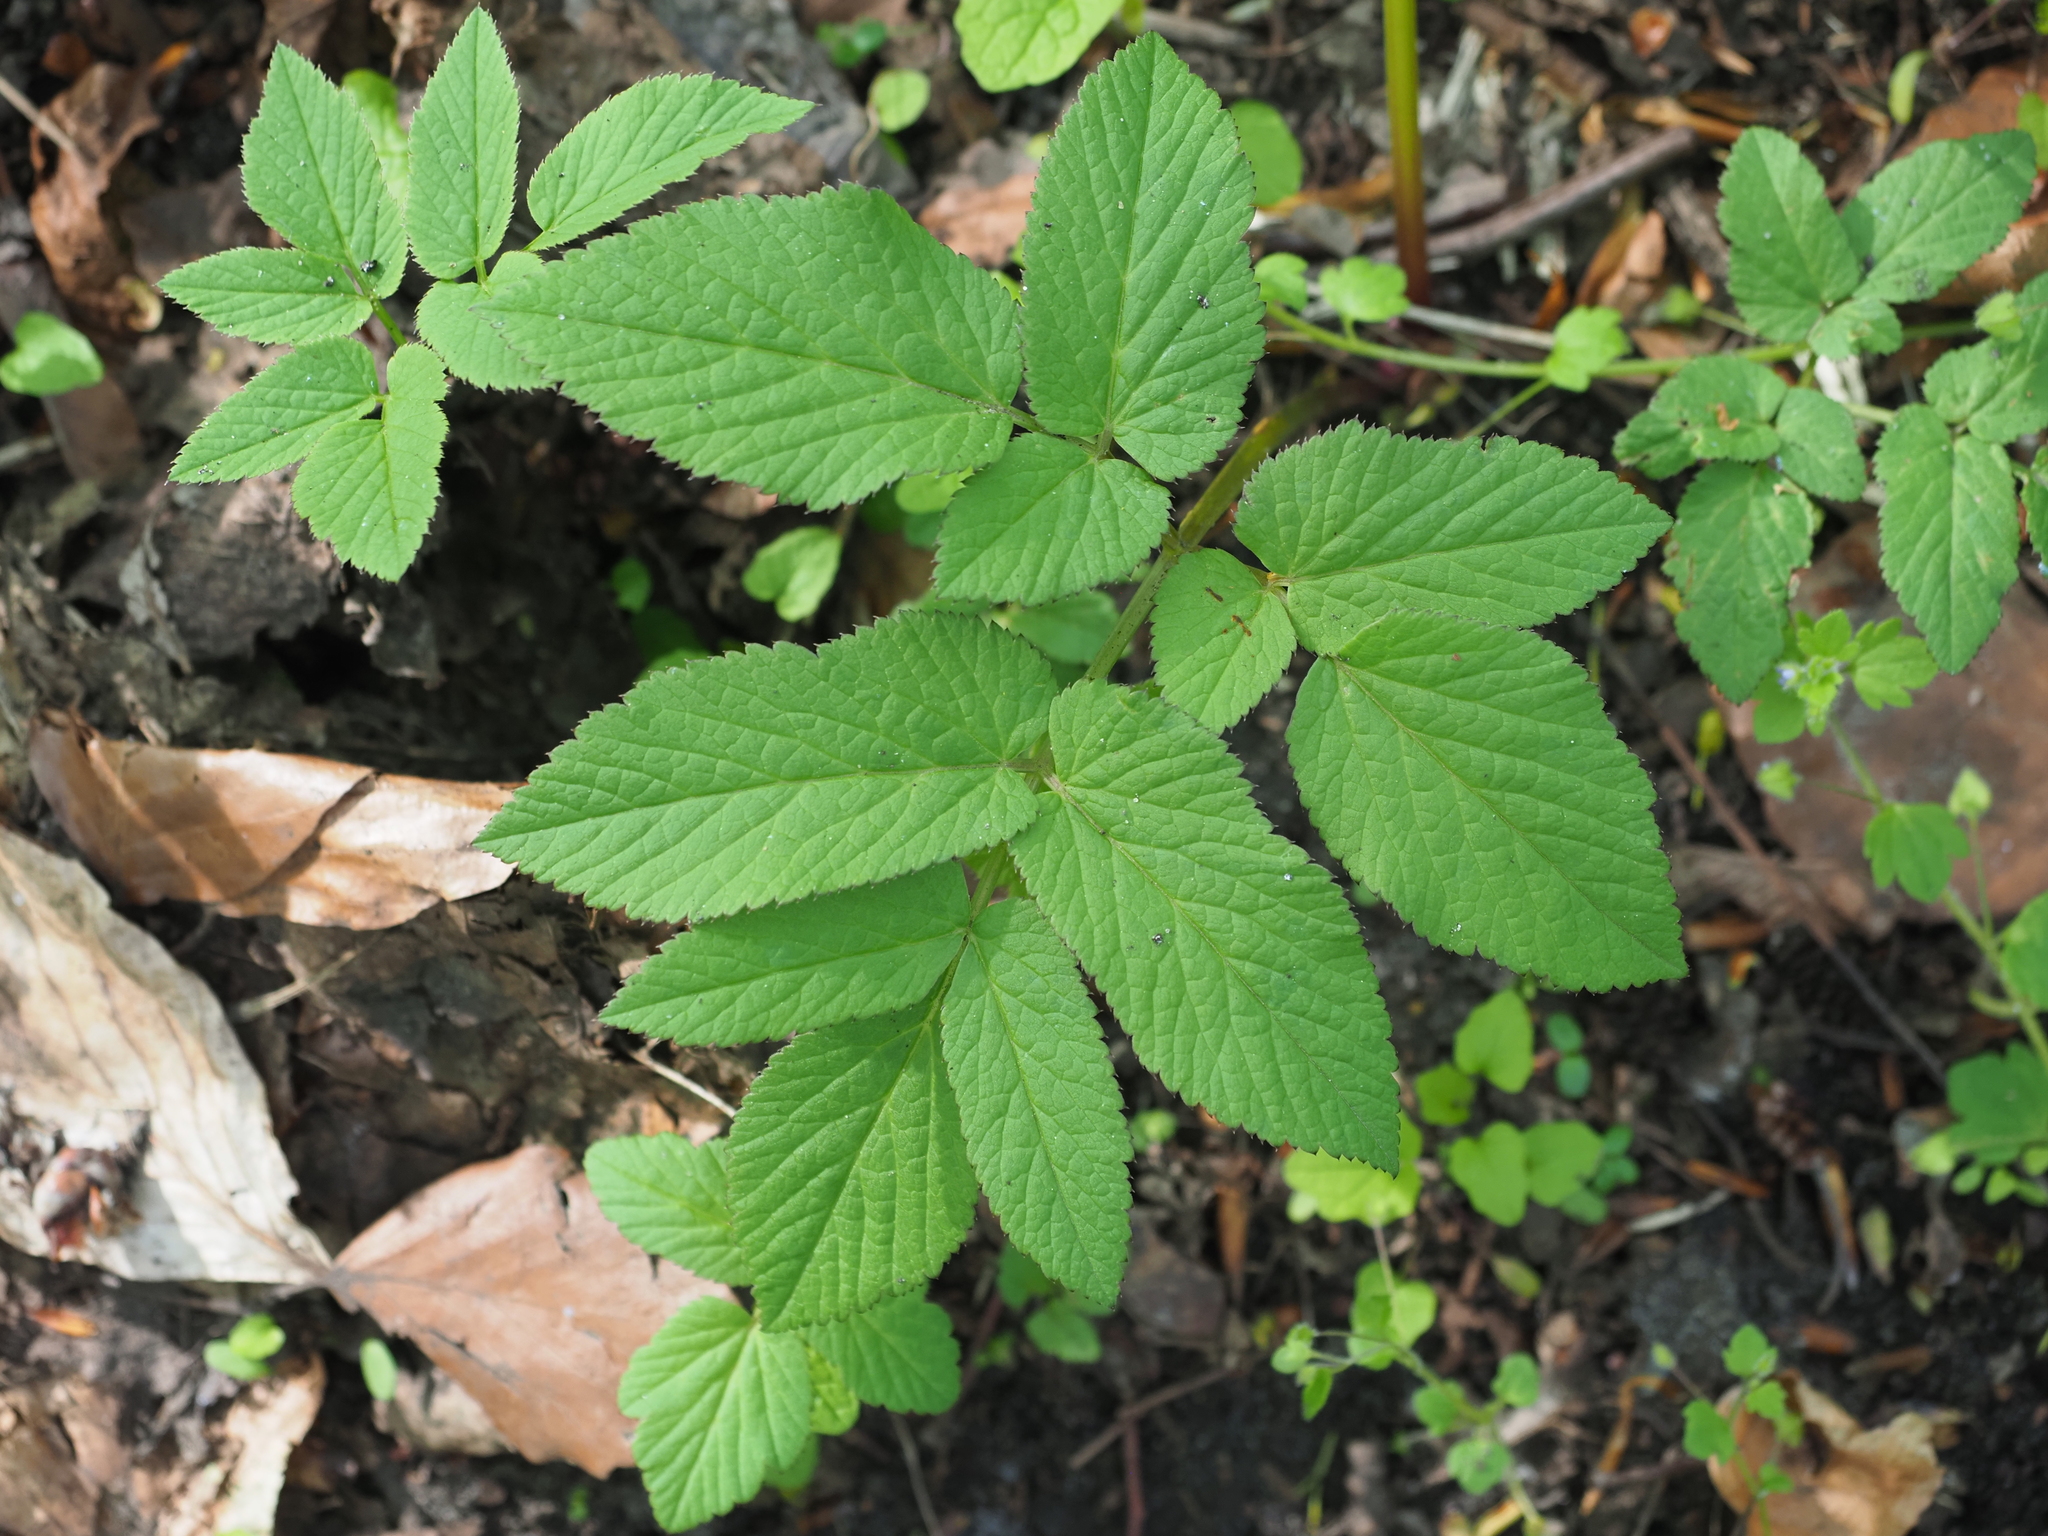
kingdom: Plantae
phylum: Tracheophyta
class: Magnoliopsida
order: Apiales
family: Apiaceae
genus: Aegopodium
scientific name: Aegopodium podagraria
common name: Ground-elder
